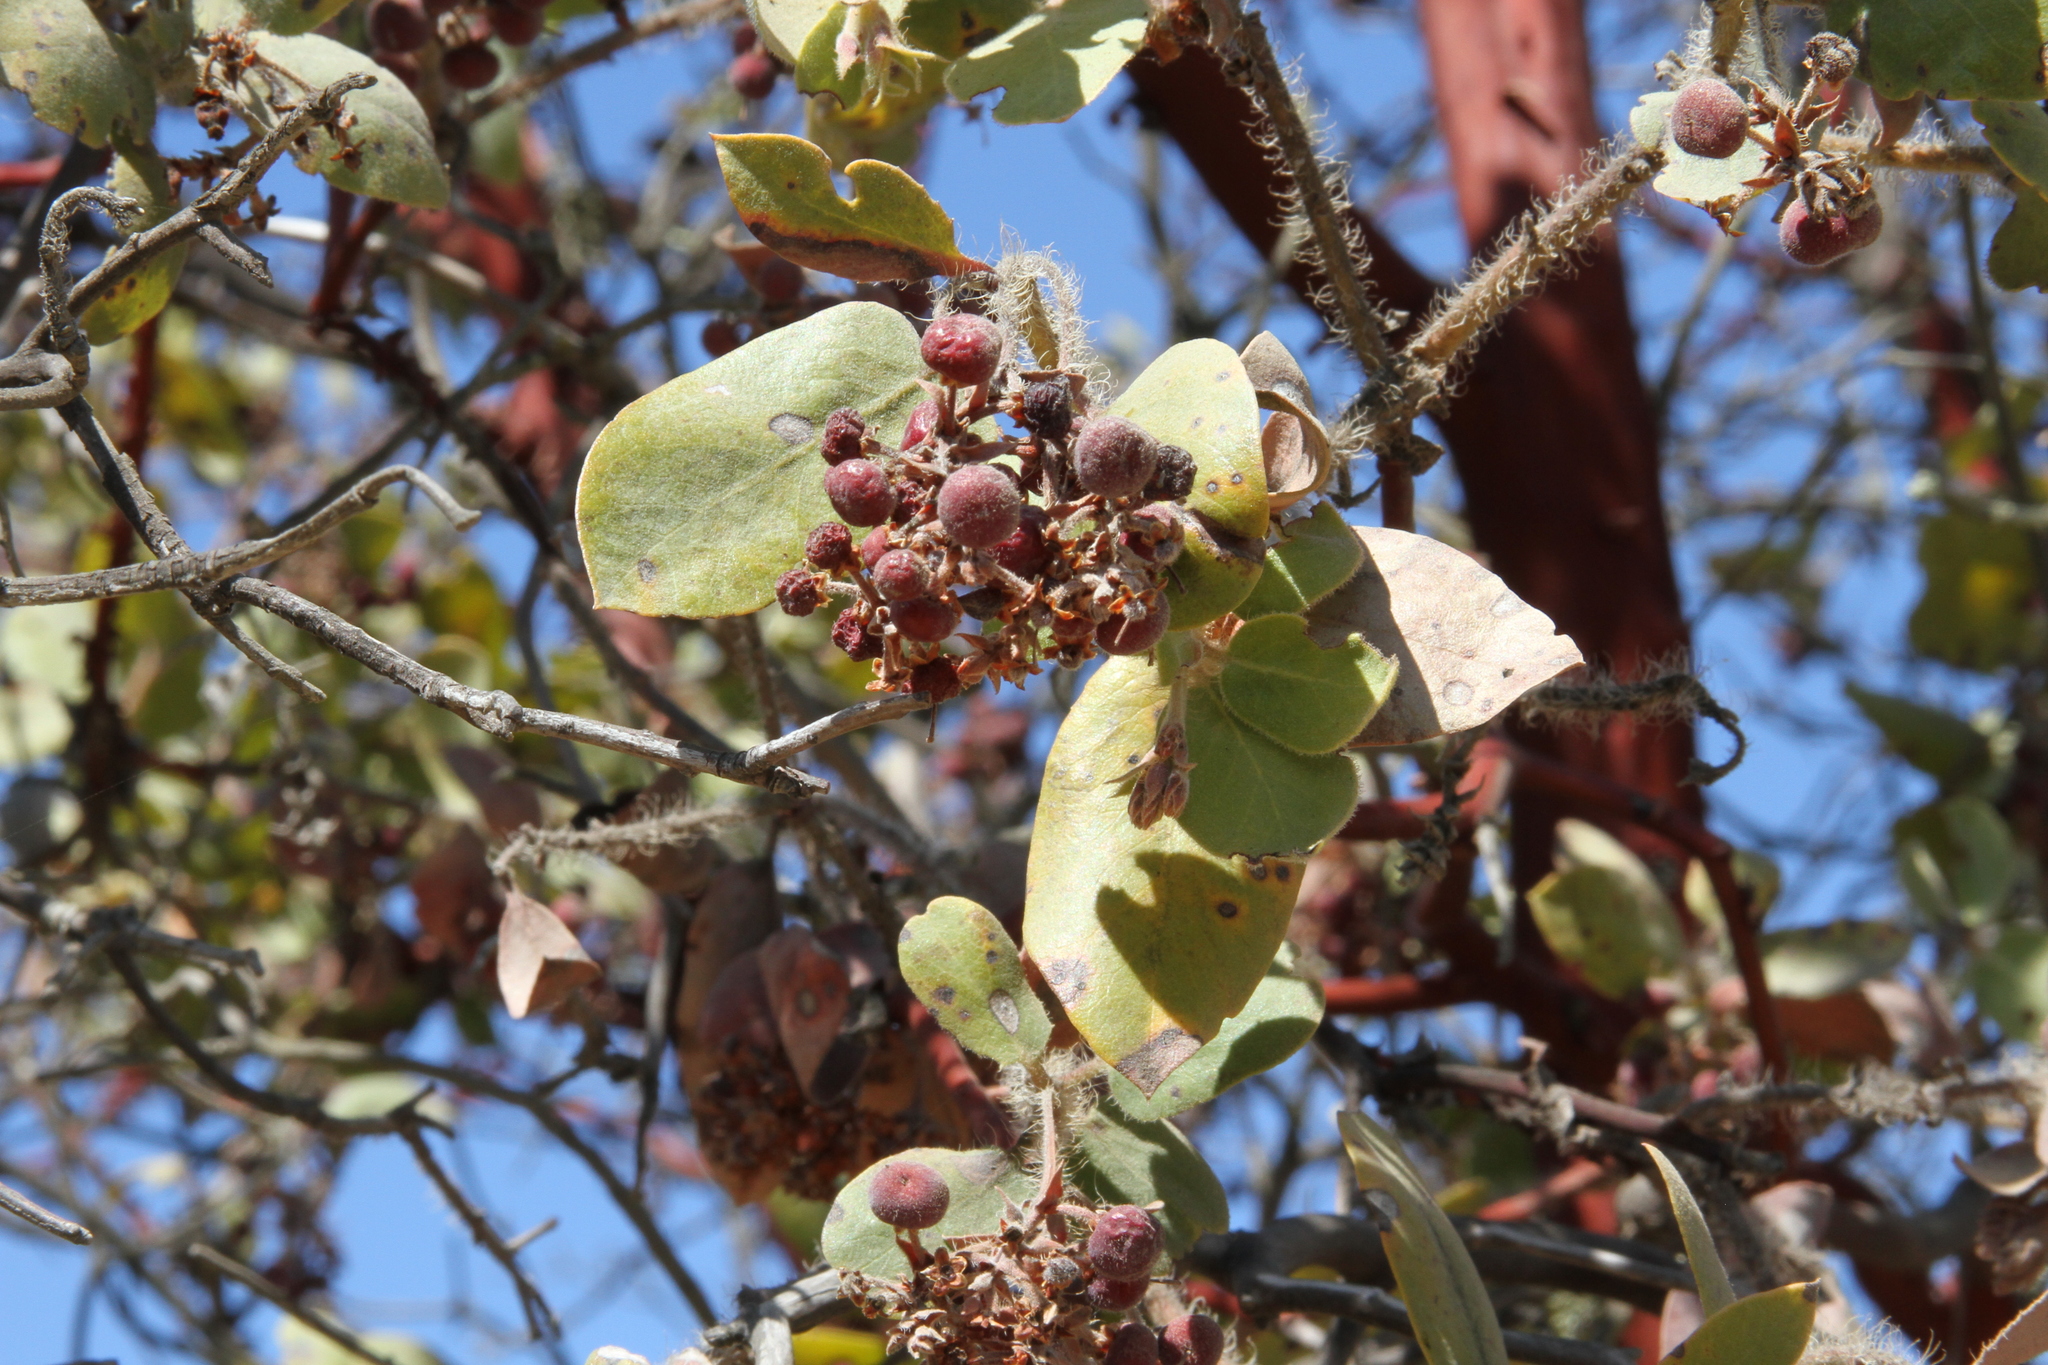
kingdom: Plantae
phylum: Tracheophyta
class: Magnoliopsida
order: Ericales
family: Ericaceae
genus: Arctostaphylos
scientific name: Arctostaphylos crustacea
